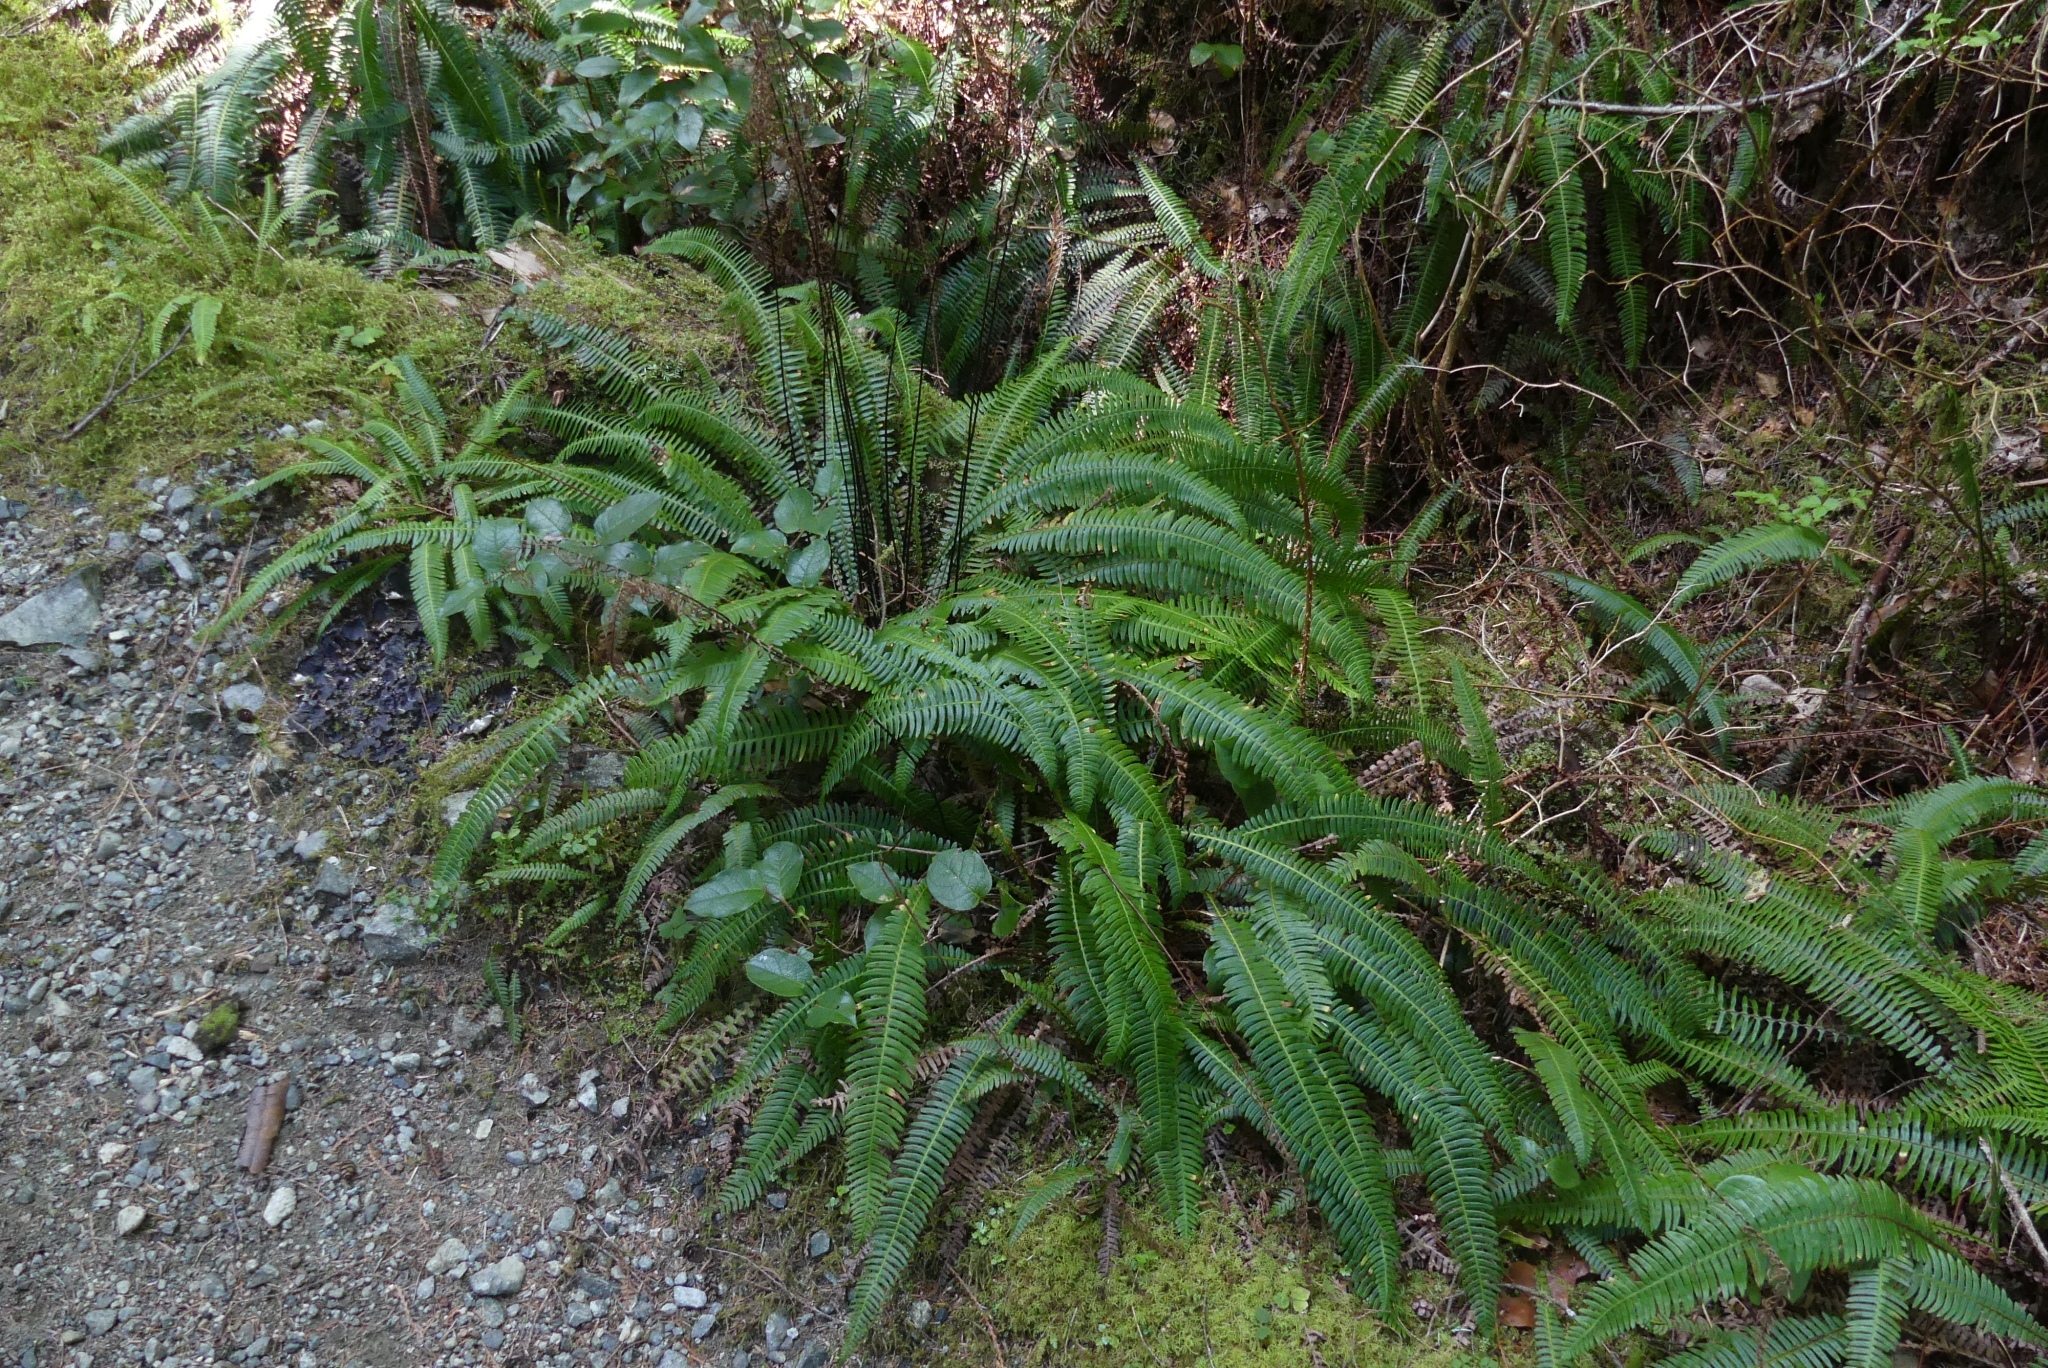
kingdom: Plantae
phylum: Tracheophyta
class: Polypodiopsida
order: Polypodiales
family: Blechnaceae
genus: Struthiopteris
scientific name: Struthiopteris spicant
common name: Deer fern
